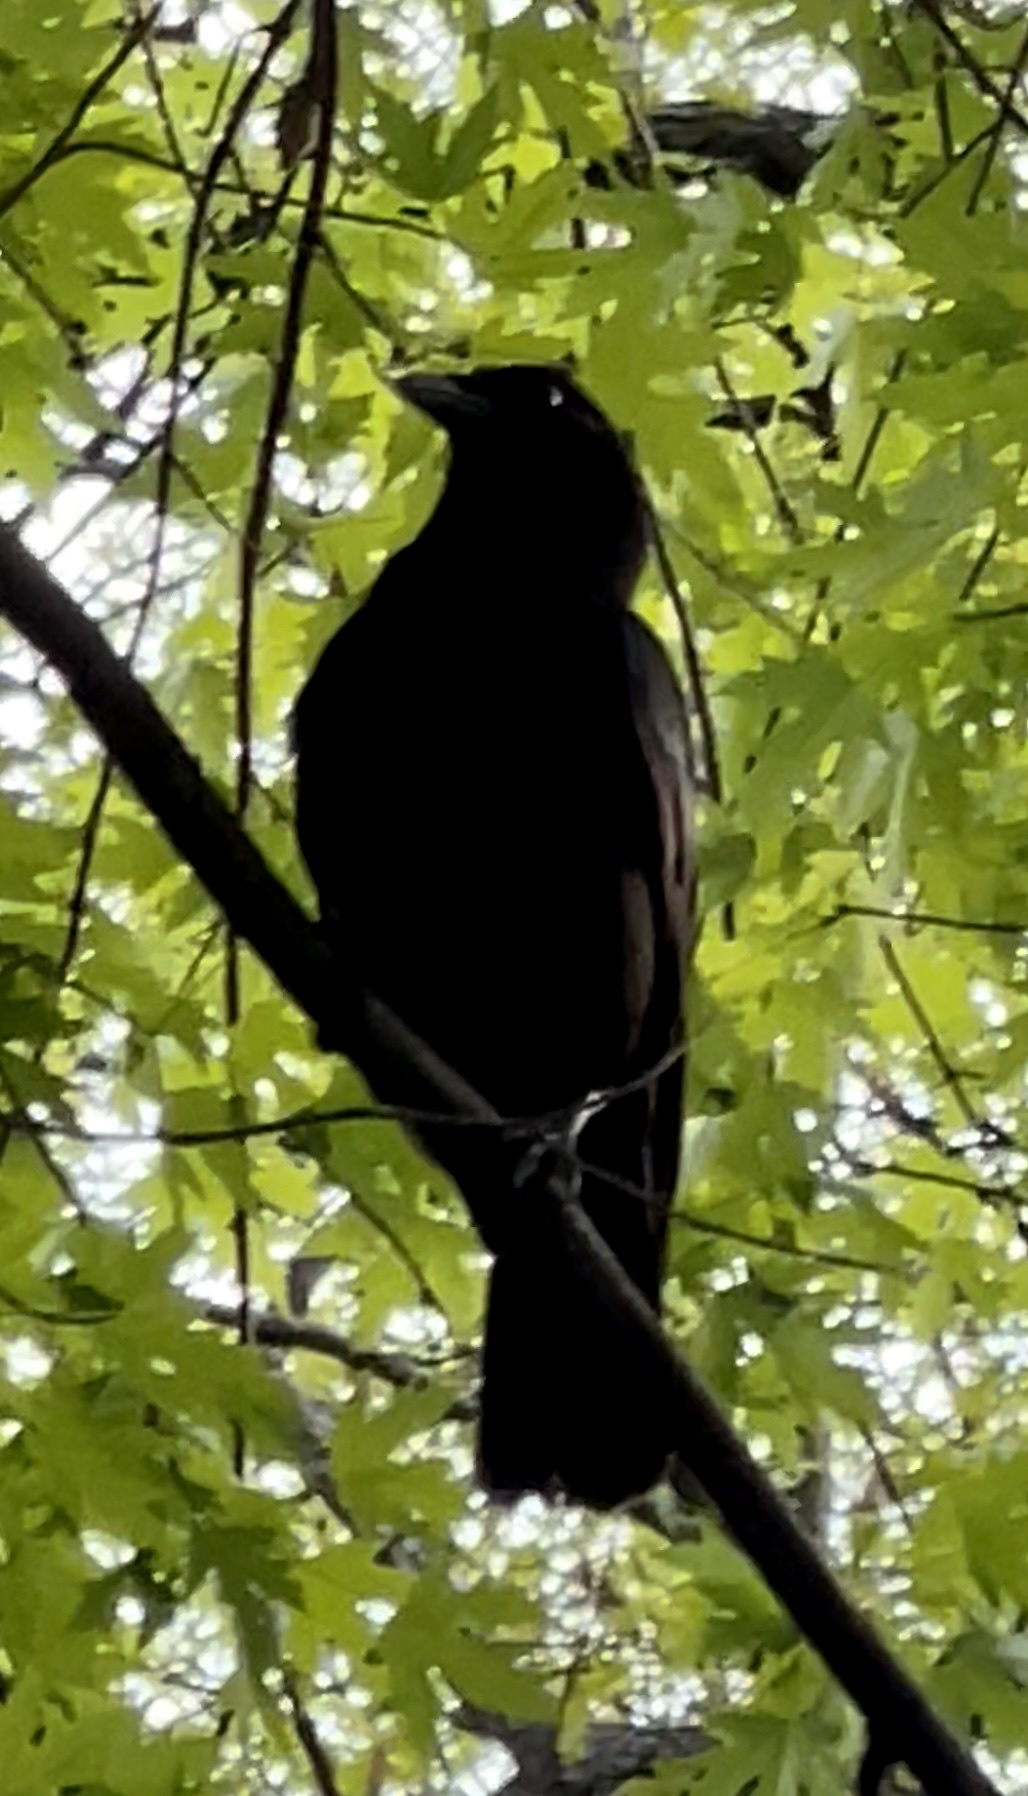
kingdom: Animalia
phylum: Chordata
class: Aves
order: Passeriformes
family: Corvidae
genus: Corvus
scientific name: Corvus brachyrhynchos
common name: American crow
